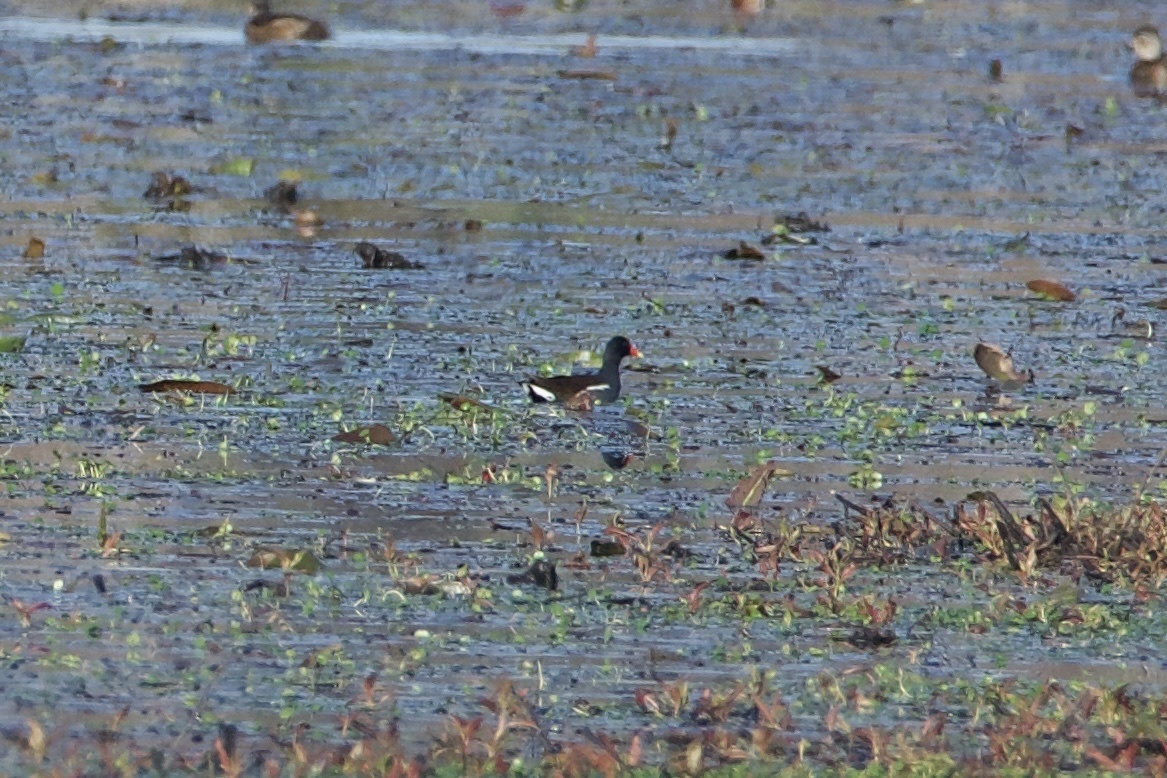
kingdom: Animalia
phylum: Chordata
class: Aves
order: Gruiformes
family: Rallidae
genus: Gallinula
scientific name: Gallinula chloropus
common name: Common moorhen
